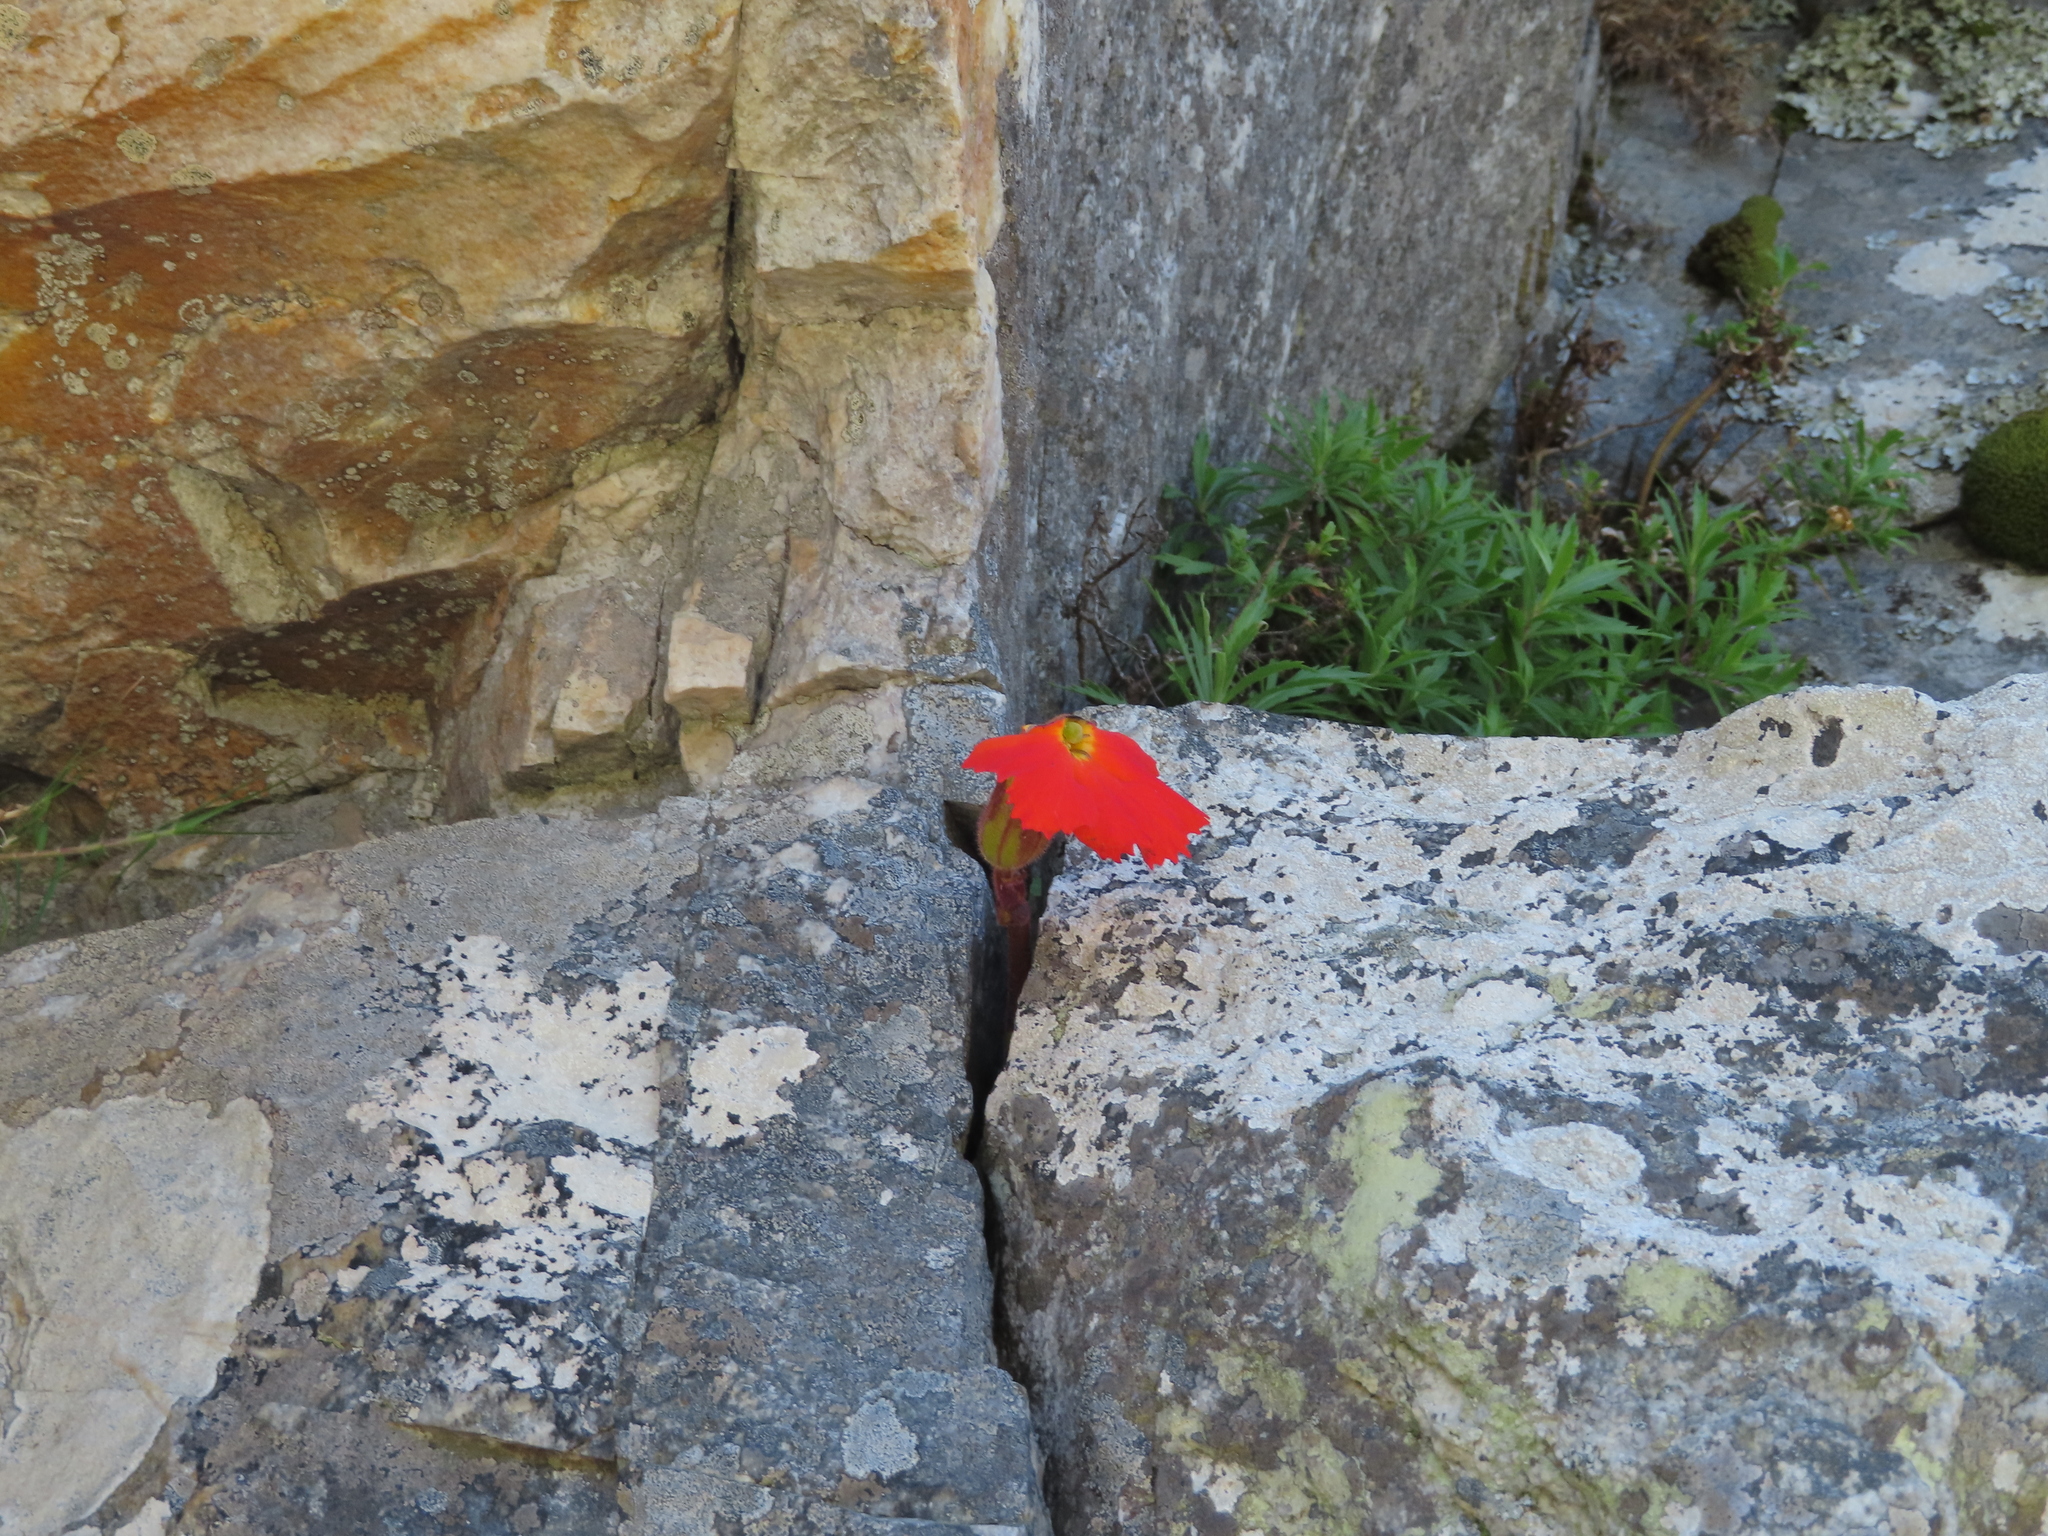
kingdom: Plantae
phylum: Tracheophyta
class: Magnoliopsida
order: Lamiales
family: Orobanchaceae
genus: Harveya
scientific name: Harveya stenosiphon
